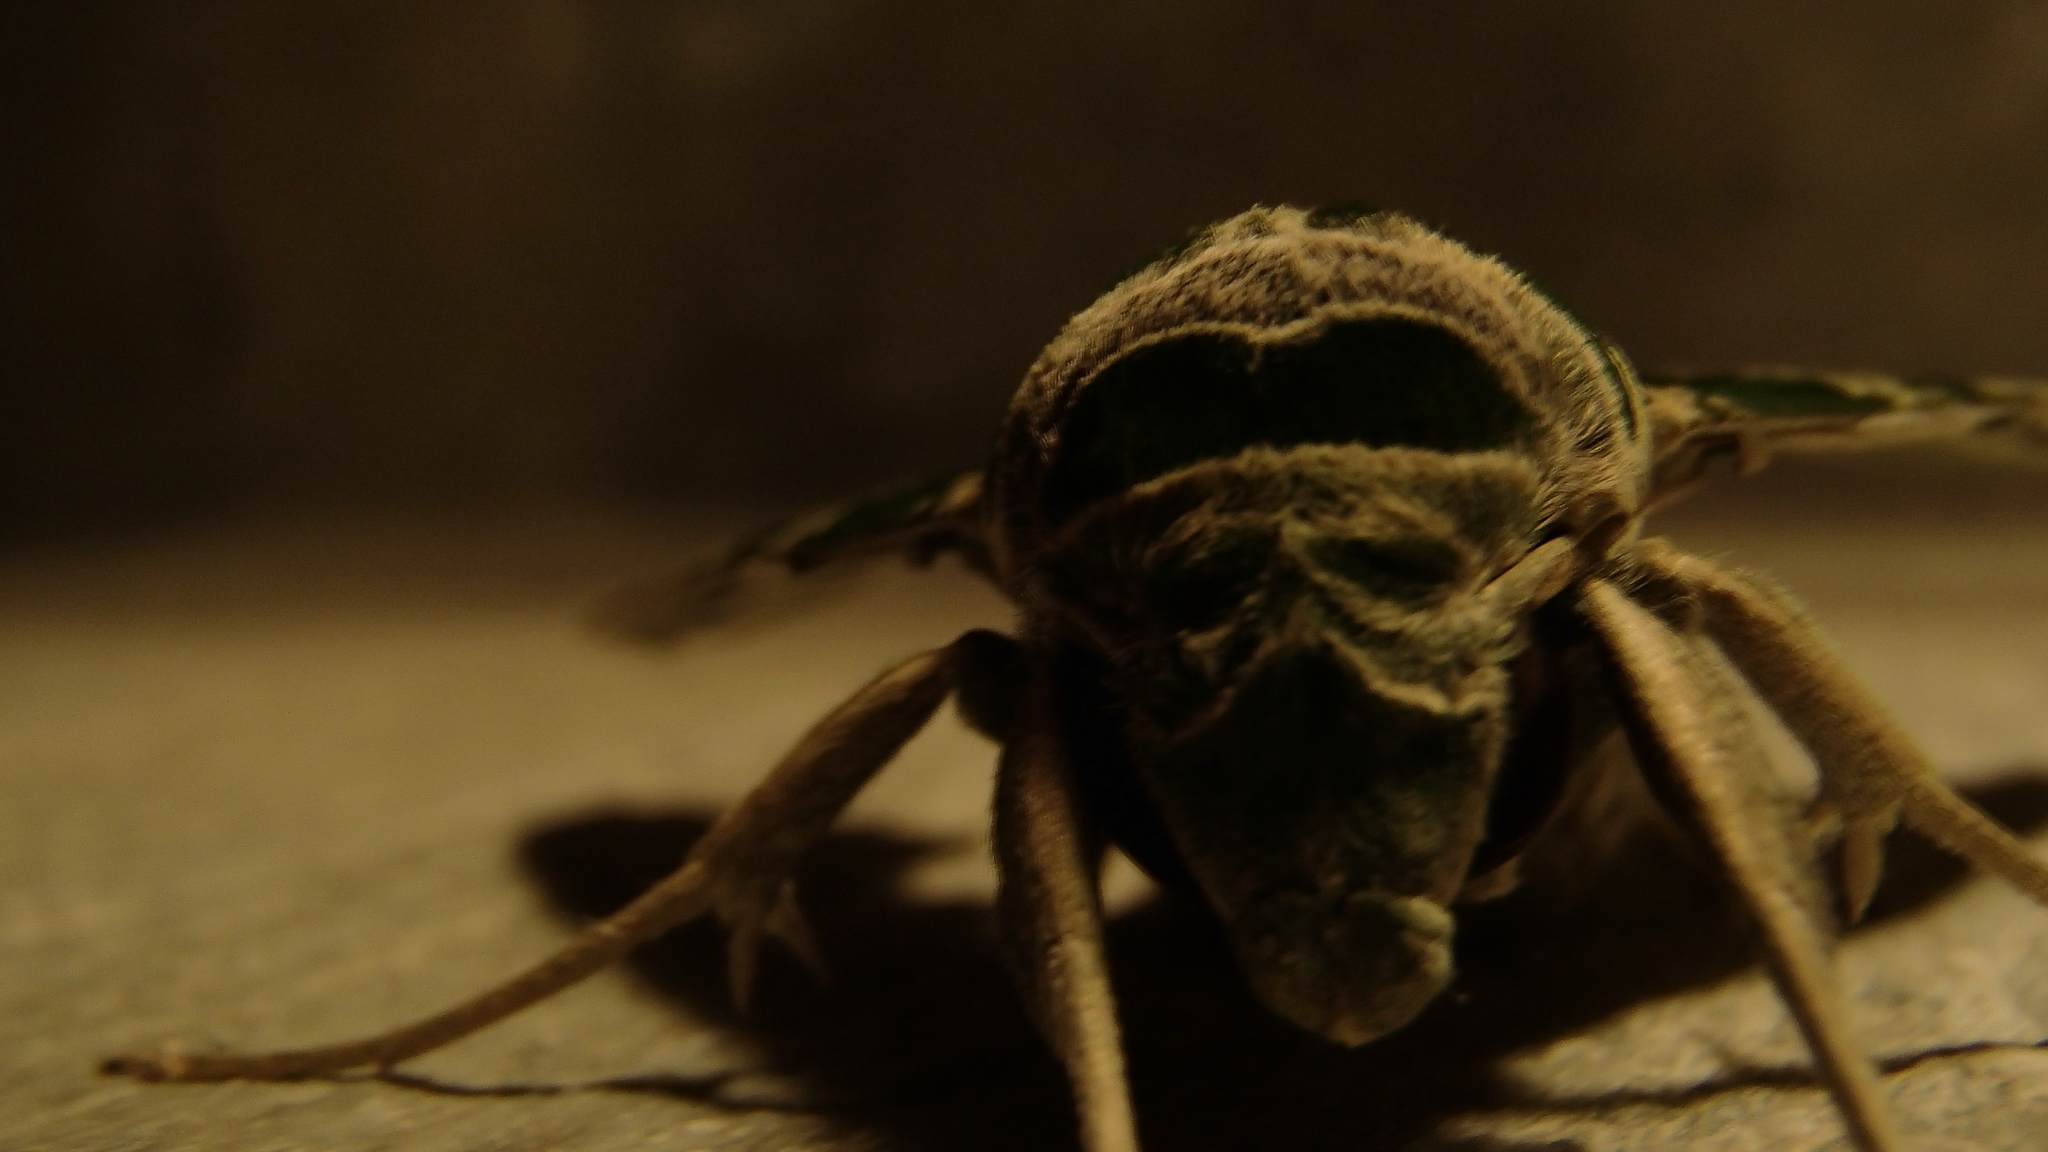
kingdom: Animalia
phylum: Arthropoda
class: Insecta
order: Lepidoptera
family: Sphingidae
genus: Daphnis
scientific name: Daphnis nerii
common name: Oleander hawk-moth
